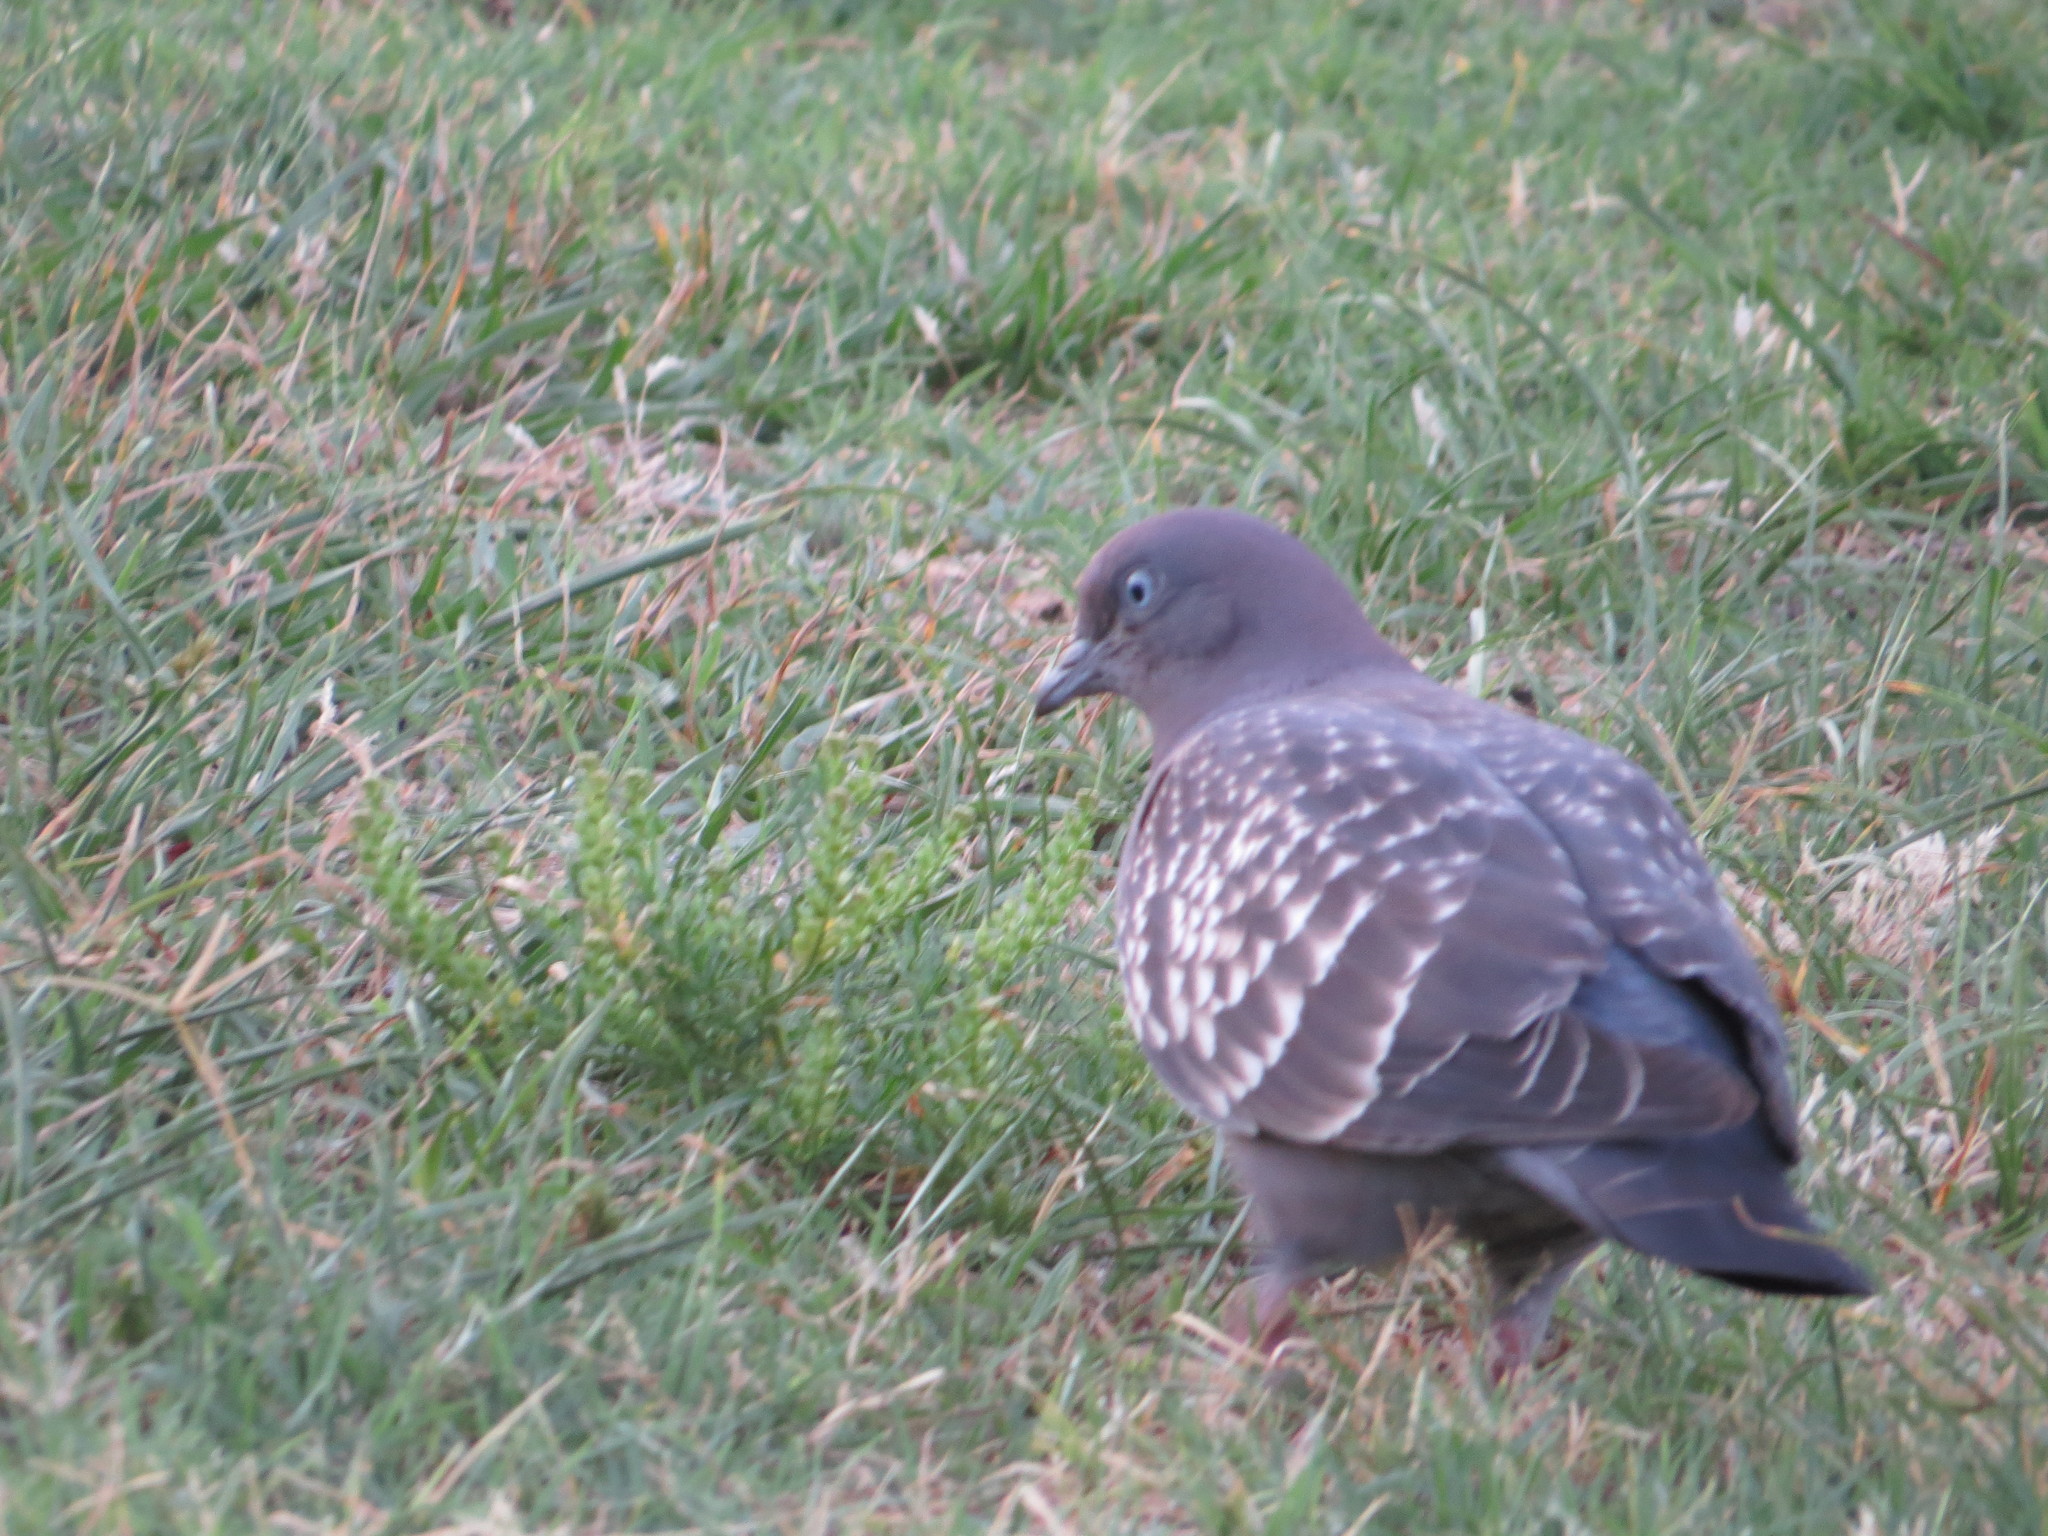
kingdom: Animalia
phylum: Chordata
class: Aves
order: Columbiformes
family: Columbidae
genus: Patagioenas
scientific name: Patagioenas maculosa
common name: Spot-winged pigeon
